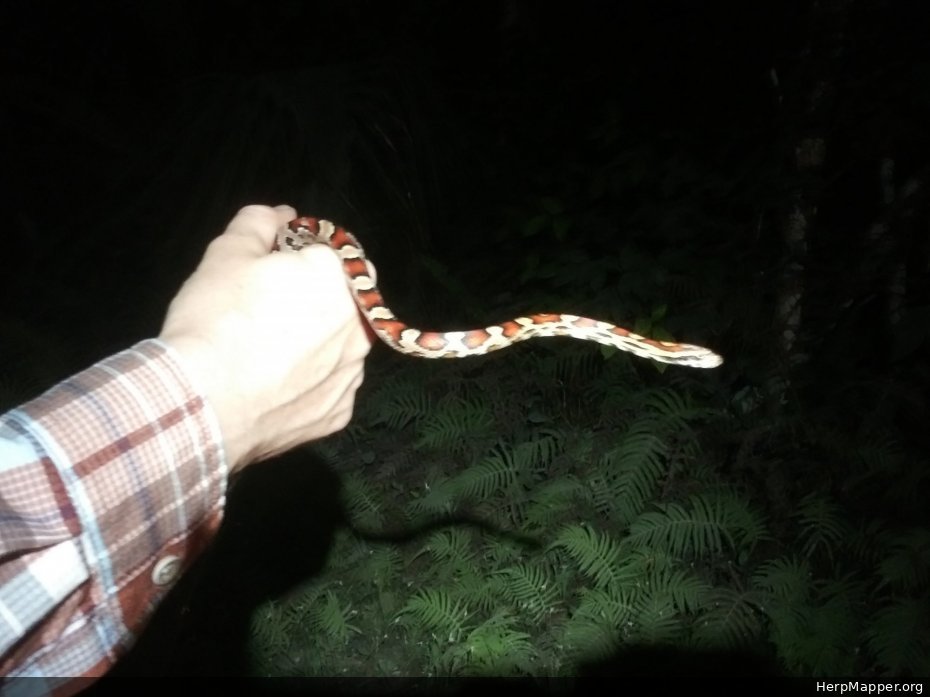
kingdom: Animalia
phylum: Chordata
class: Squamata
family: Colubridae
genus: Pantherophis
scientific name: Pantherophis guttatus
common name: Red cornsnake
